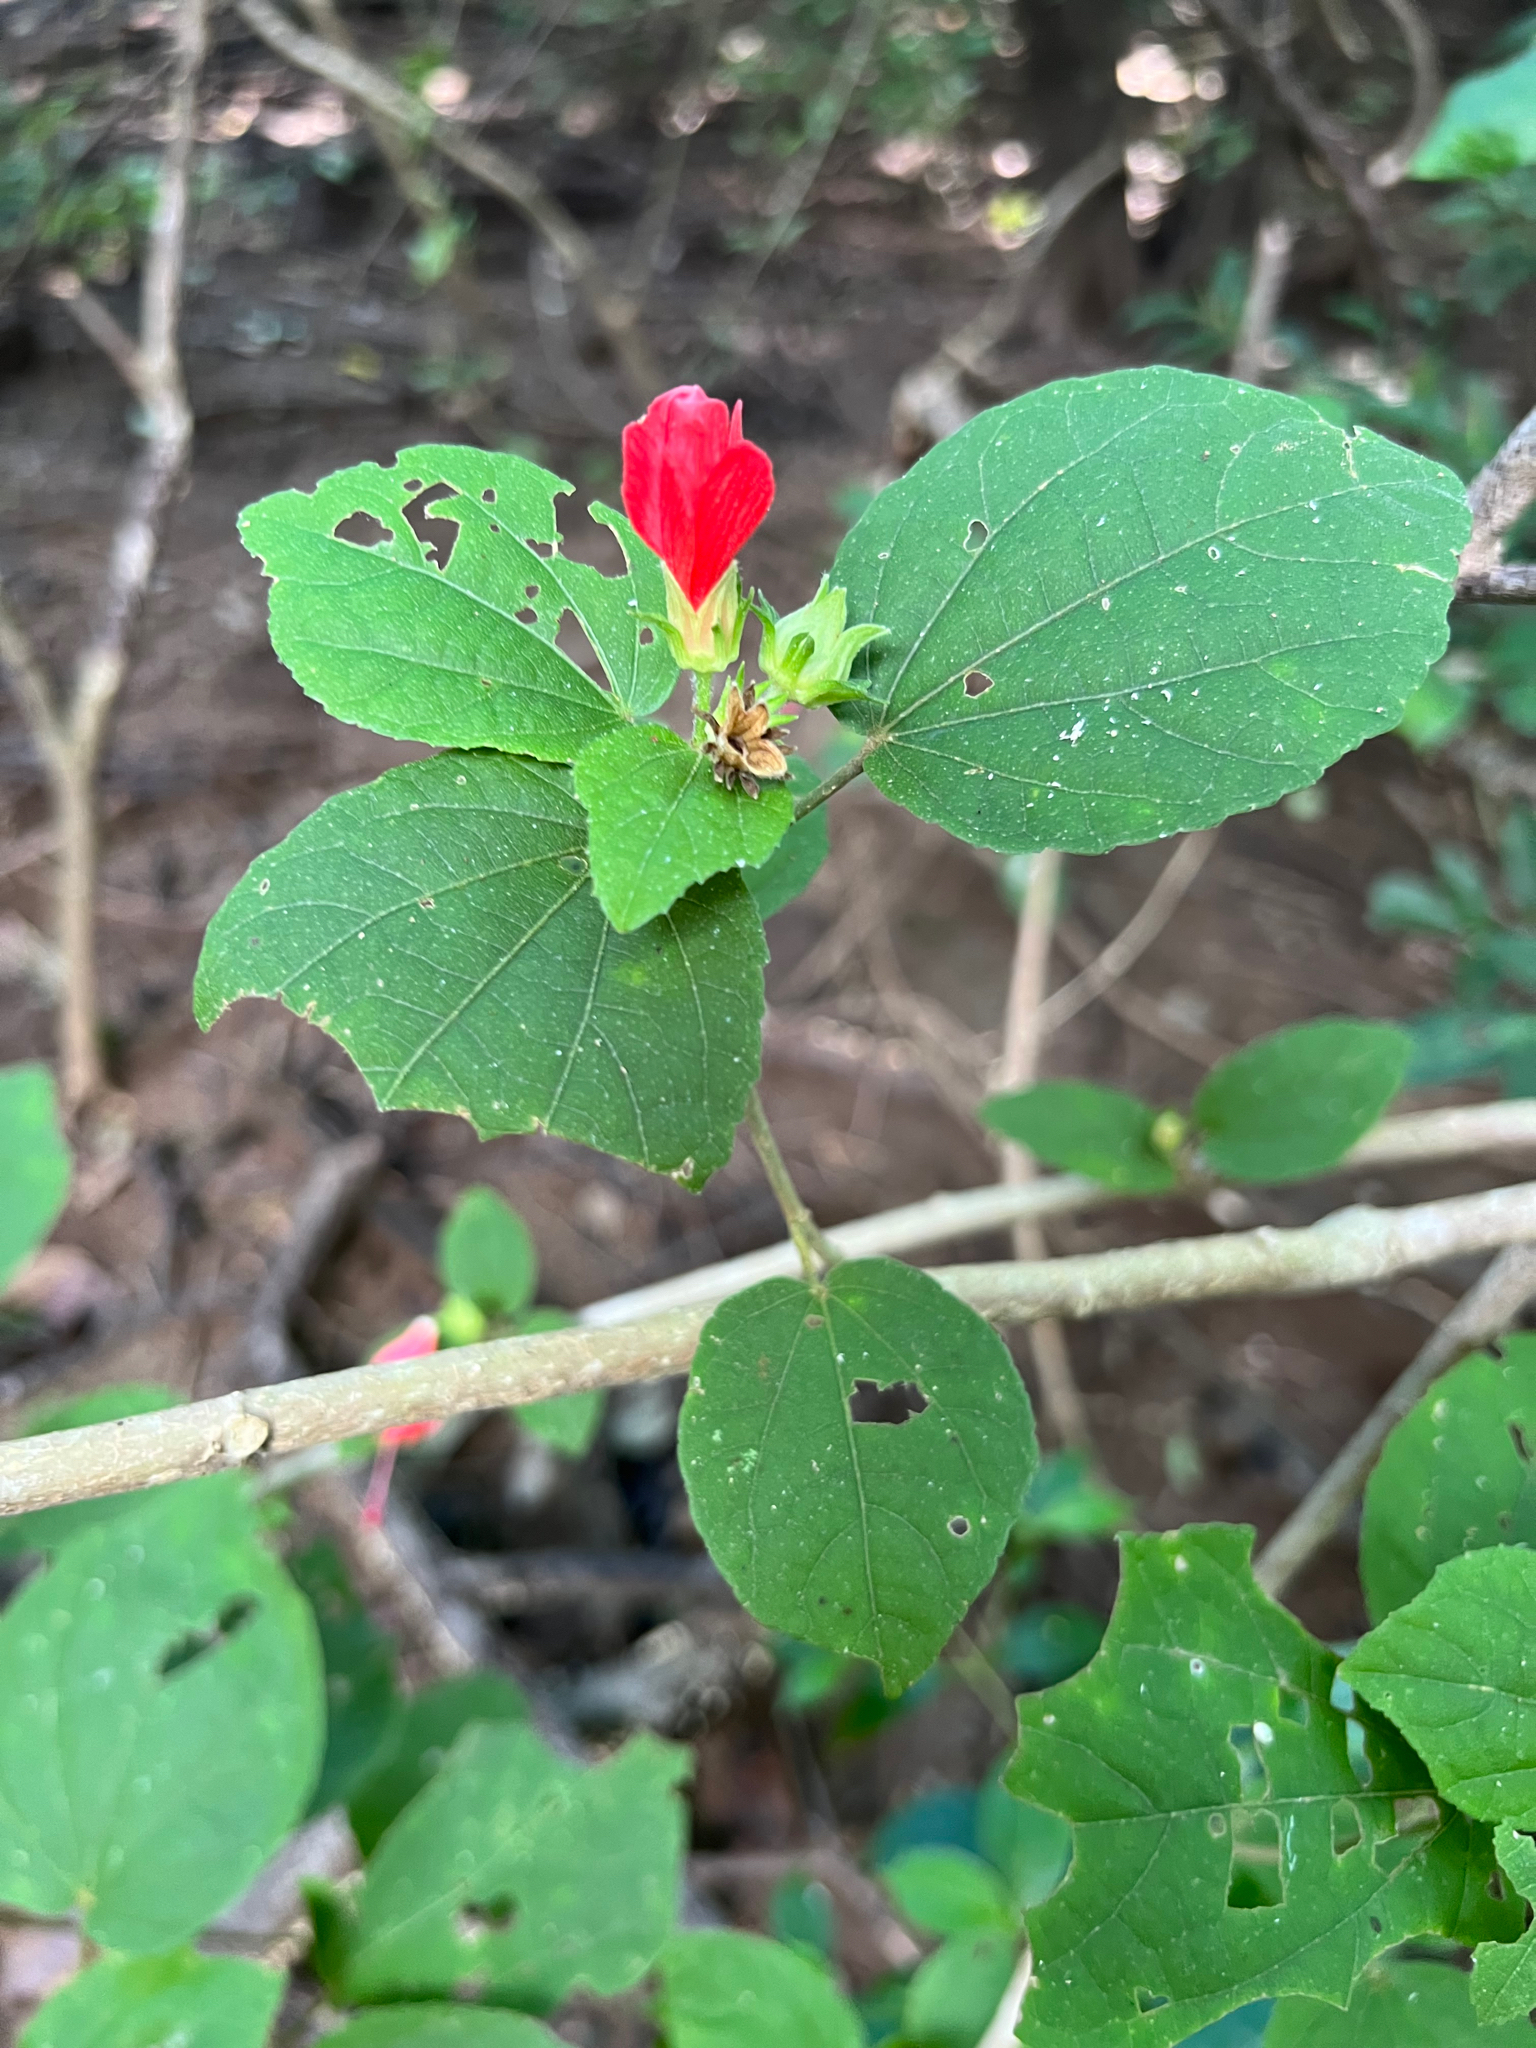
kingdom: Plantae
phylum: Tracheophyta
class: Magnoliopsida
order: Malvales
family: Malvaceae
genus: Malvaviscus
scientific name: Malvaviscus arboreus
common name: Wax mallow
